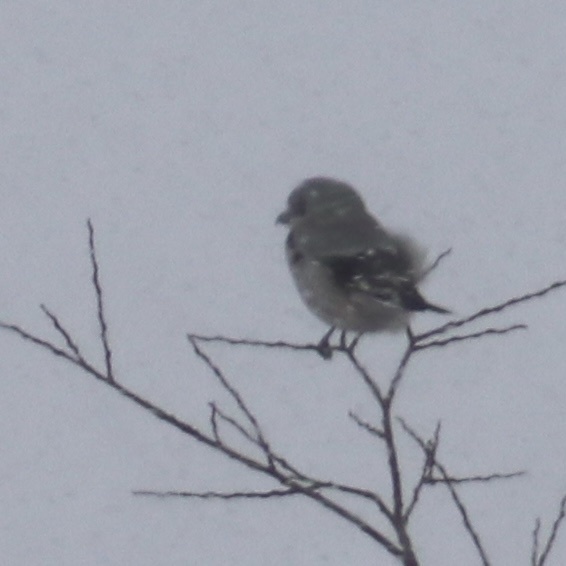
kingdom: Animalia
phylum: Chordata
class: Aves
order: Passeriformes
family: Laniidae
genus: Lanius
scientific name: Lanius borealis
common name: Northern shrike
